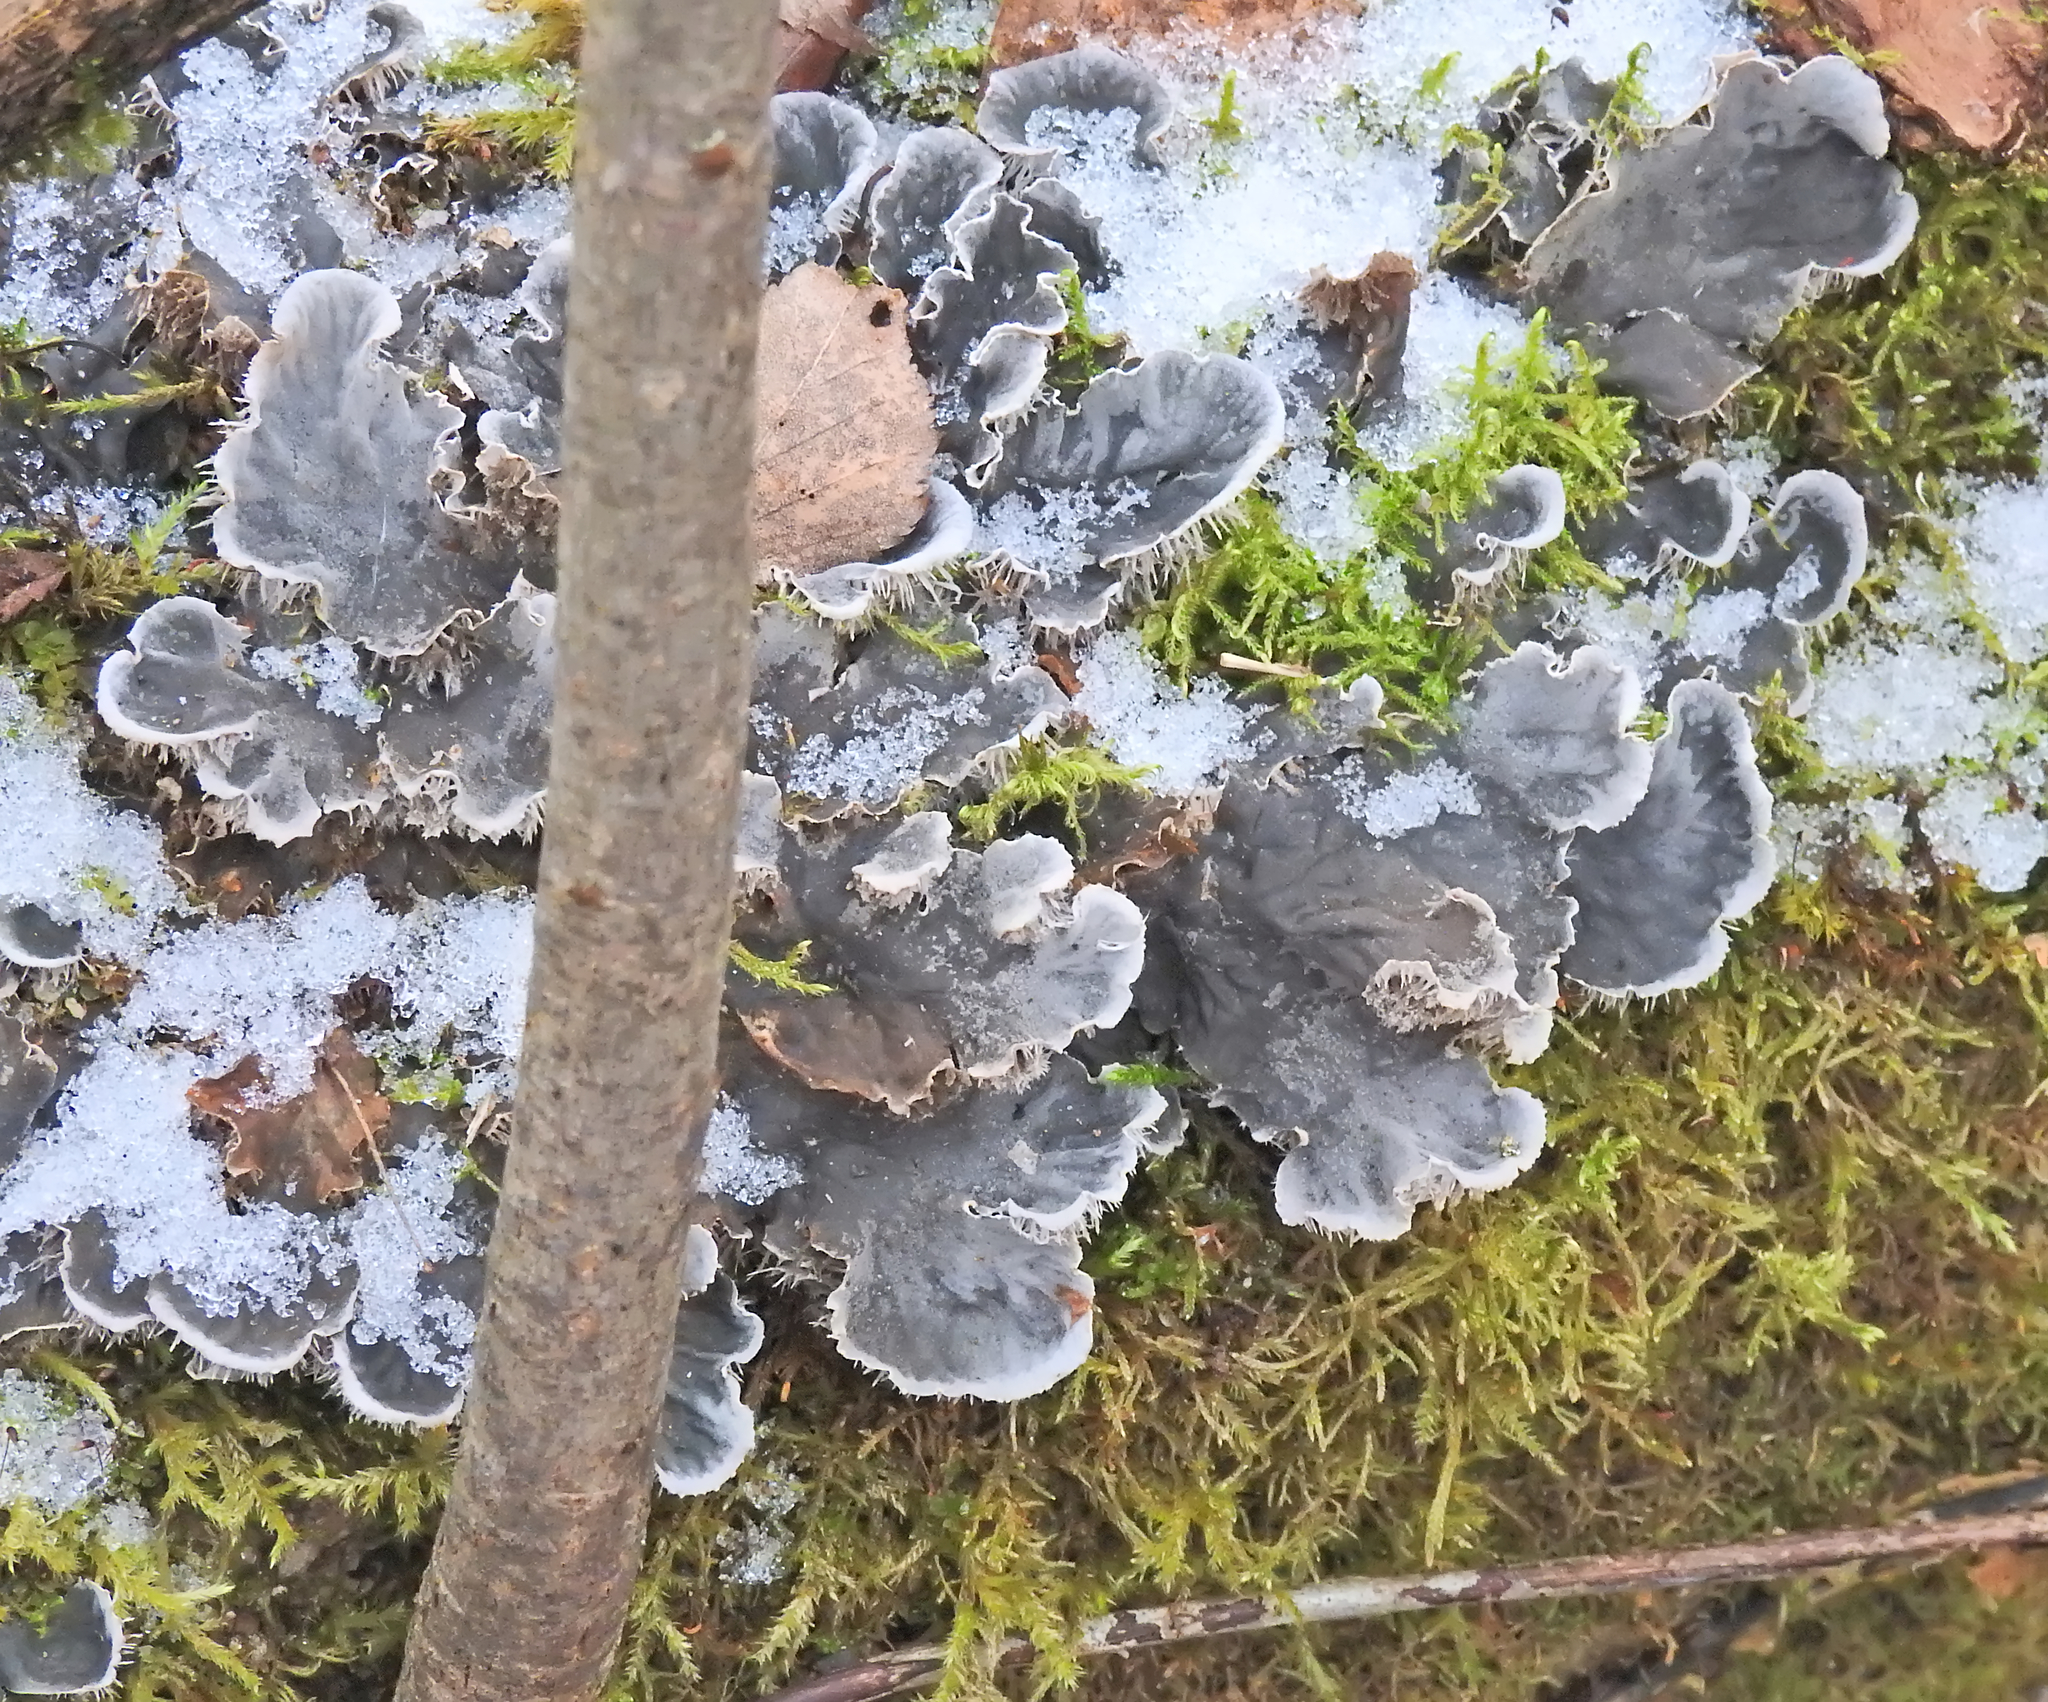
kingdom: Fungi
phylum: Ascomycota
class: Lecanoromycetes
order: Peltigerales
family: Peltigeraceae
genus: Peltigera
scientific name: Peltigera canina
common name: Dog pelt lichen
